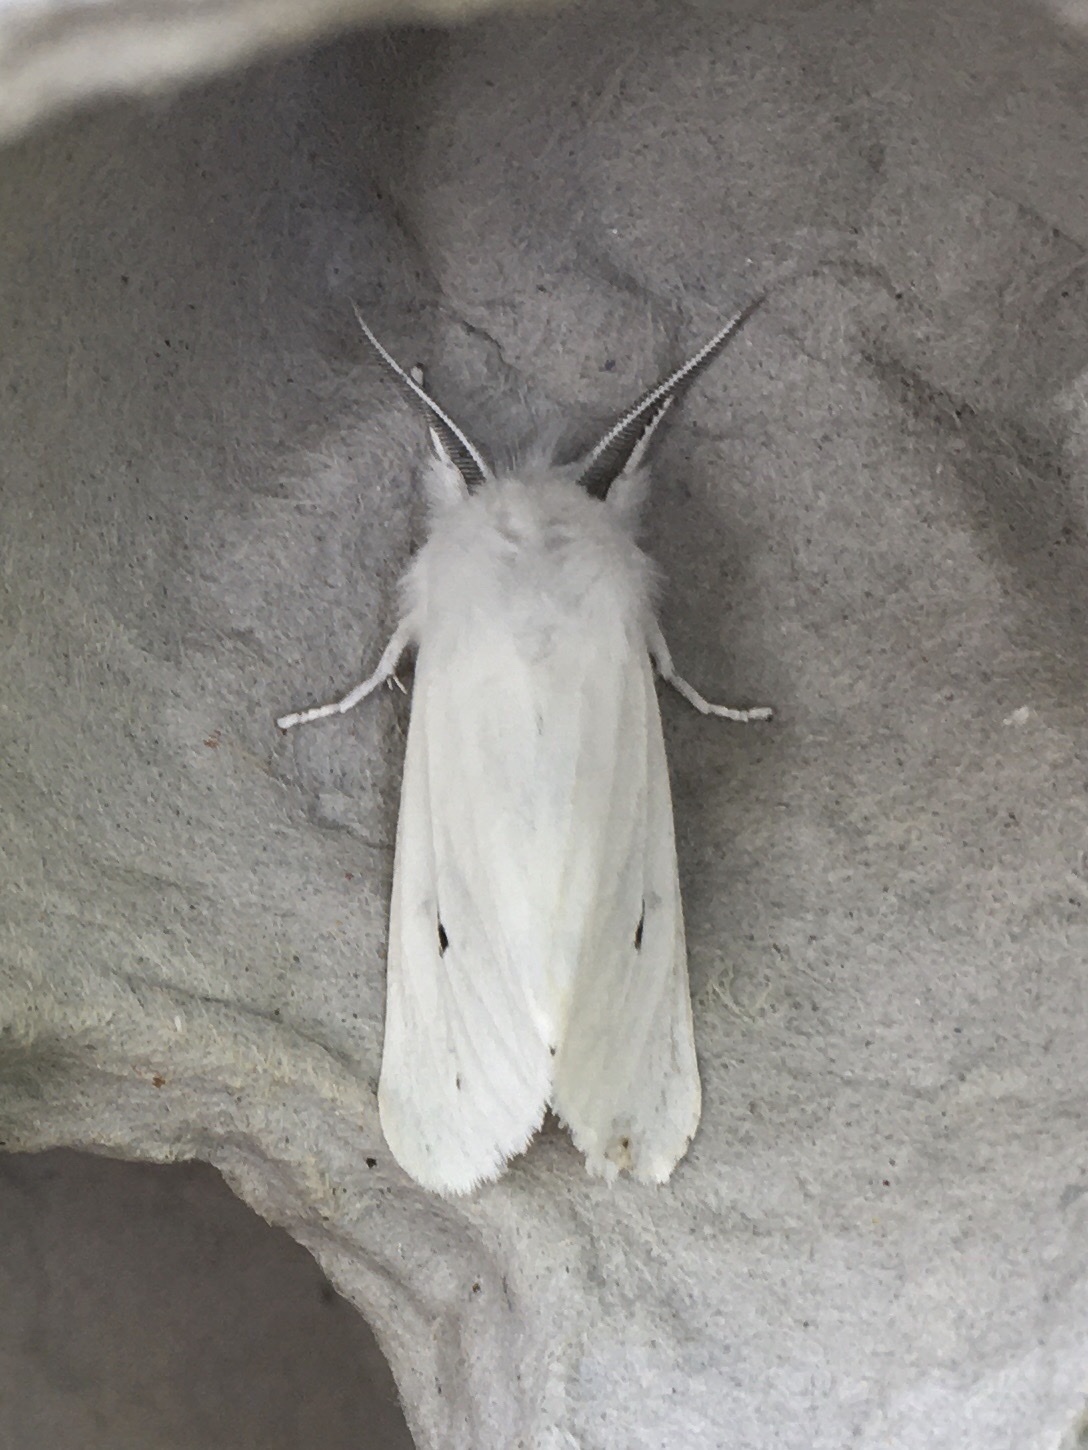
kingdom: Animalia
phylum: Arthropoda
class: Insecta
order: Lepidoptera
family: Erebidae
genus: Spilosoma
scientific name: Spilosoma virginica
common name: Virginia tiger moth
